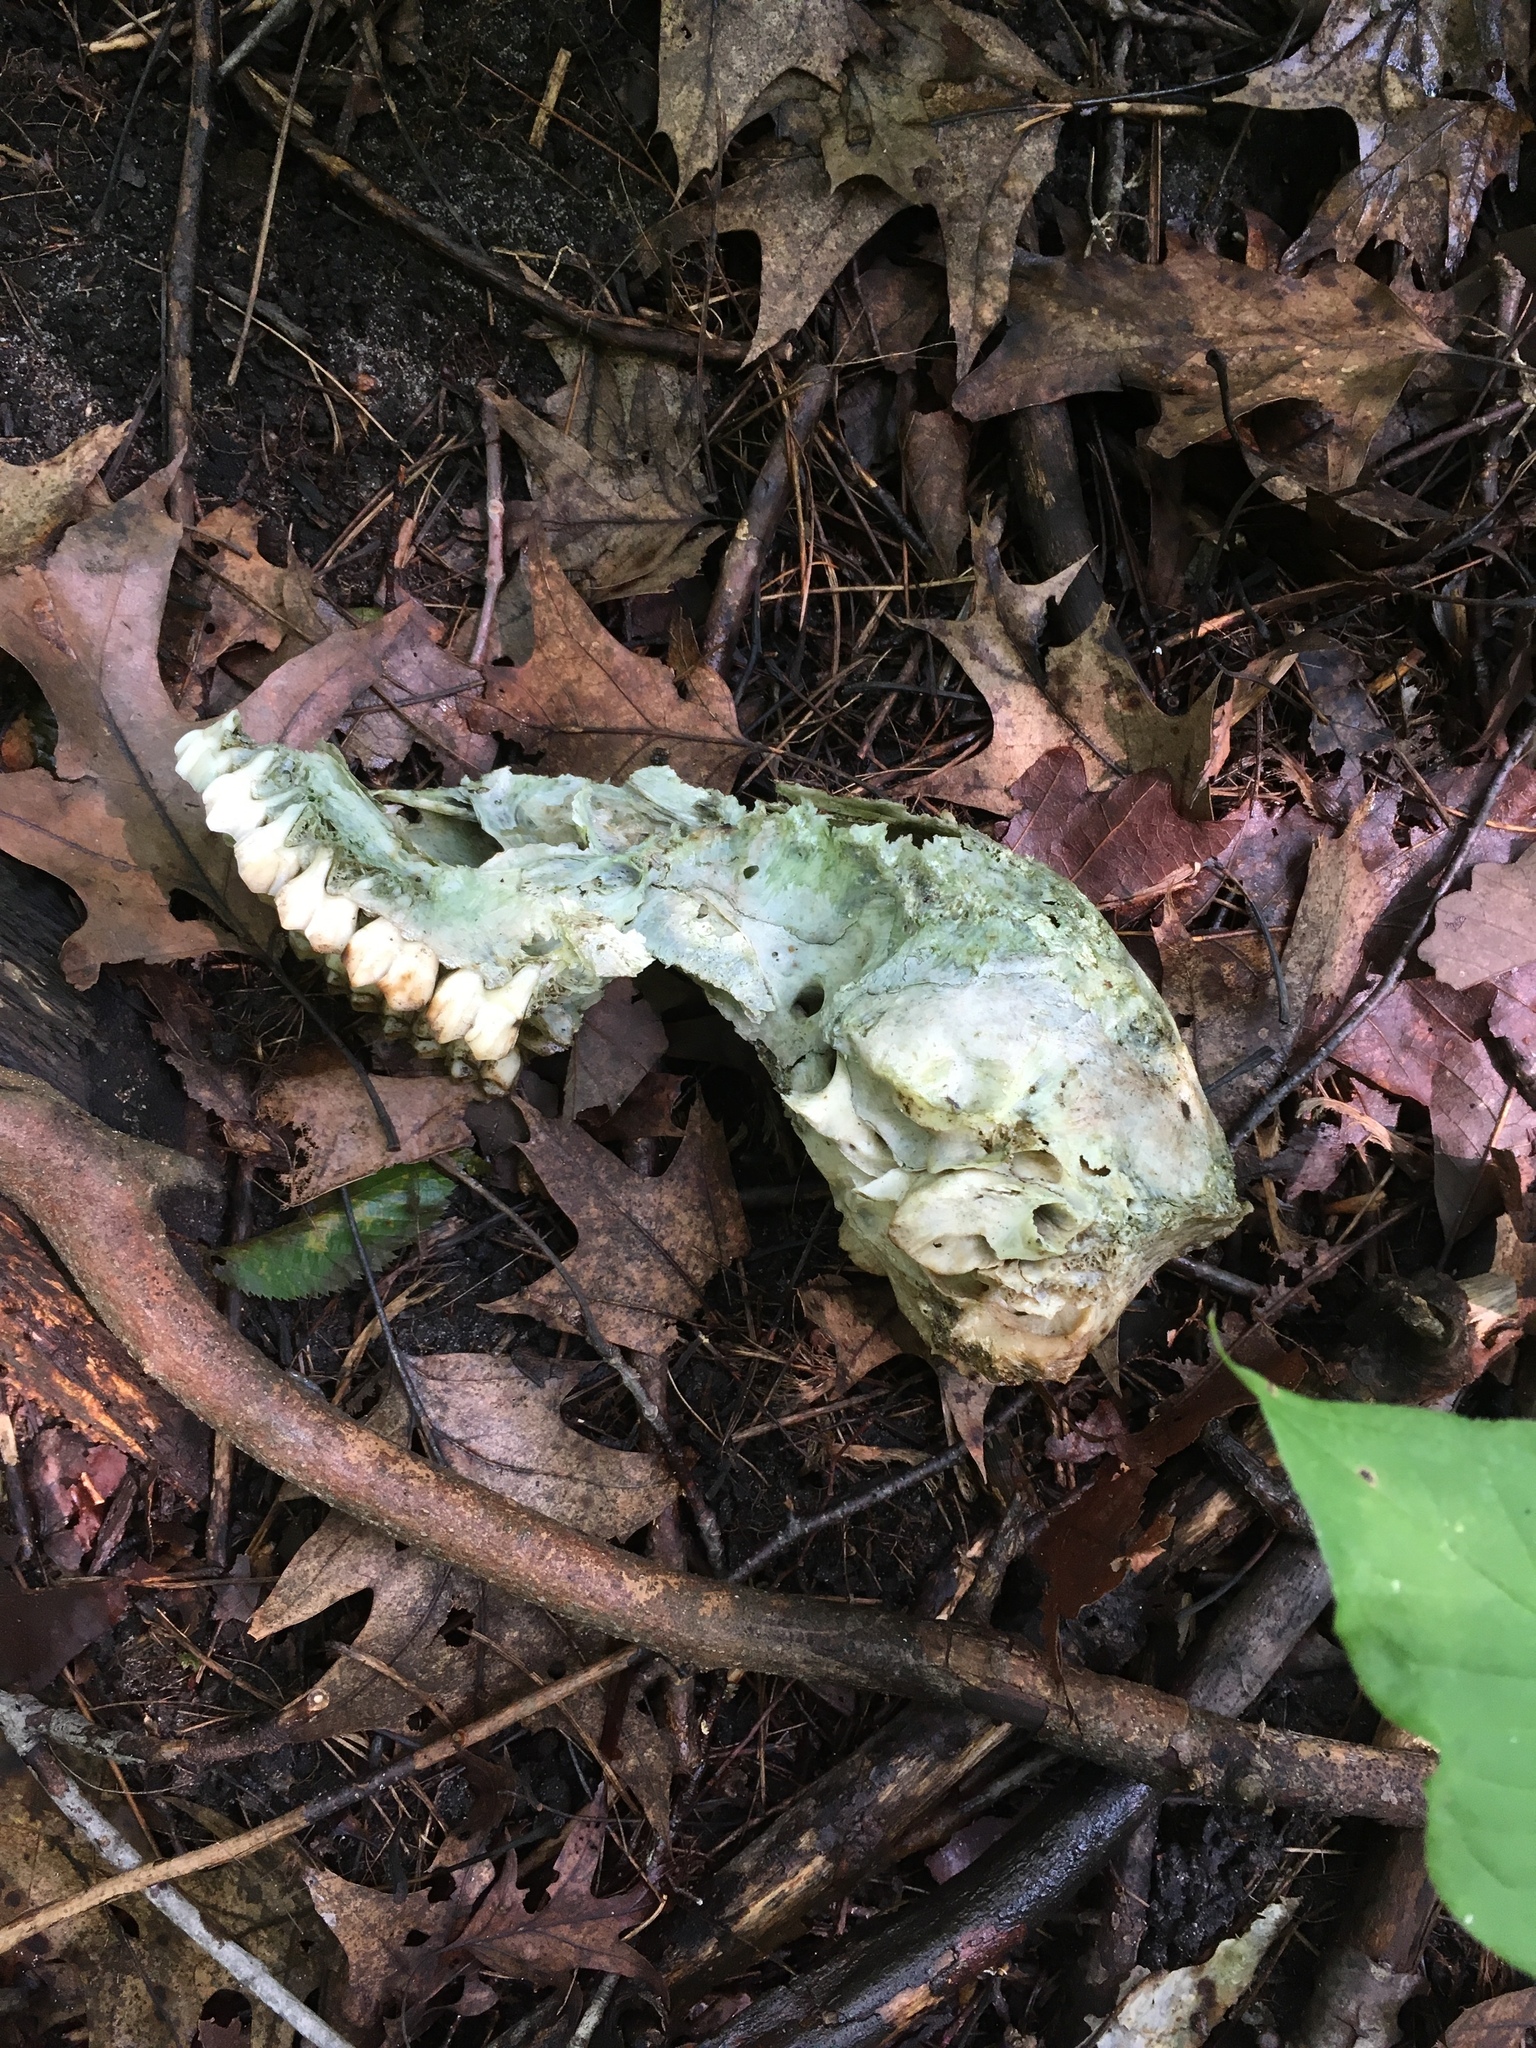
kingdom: Animalia
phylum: Chordata
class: Mammalia
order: Artiodactyla
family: Cervidae
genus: Odocoileus
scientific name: Odocoileus virginianus
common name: White-tailed deer
